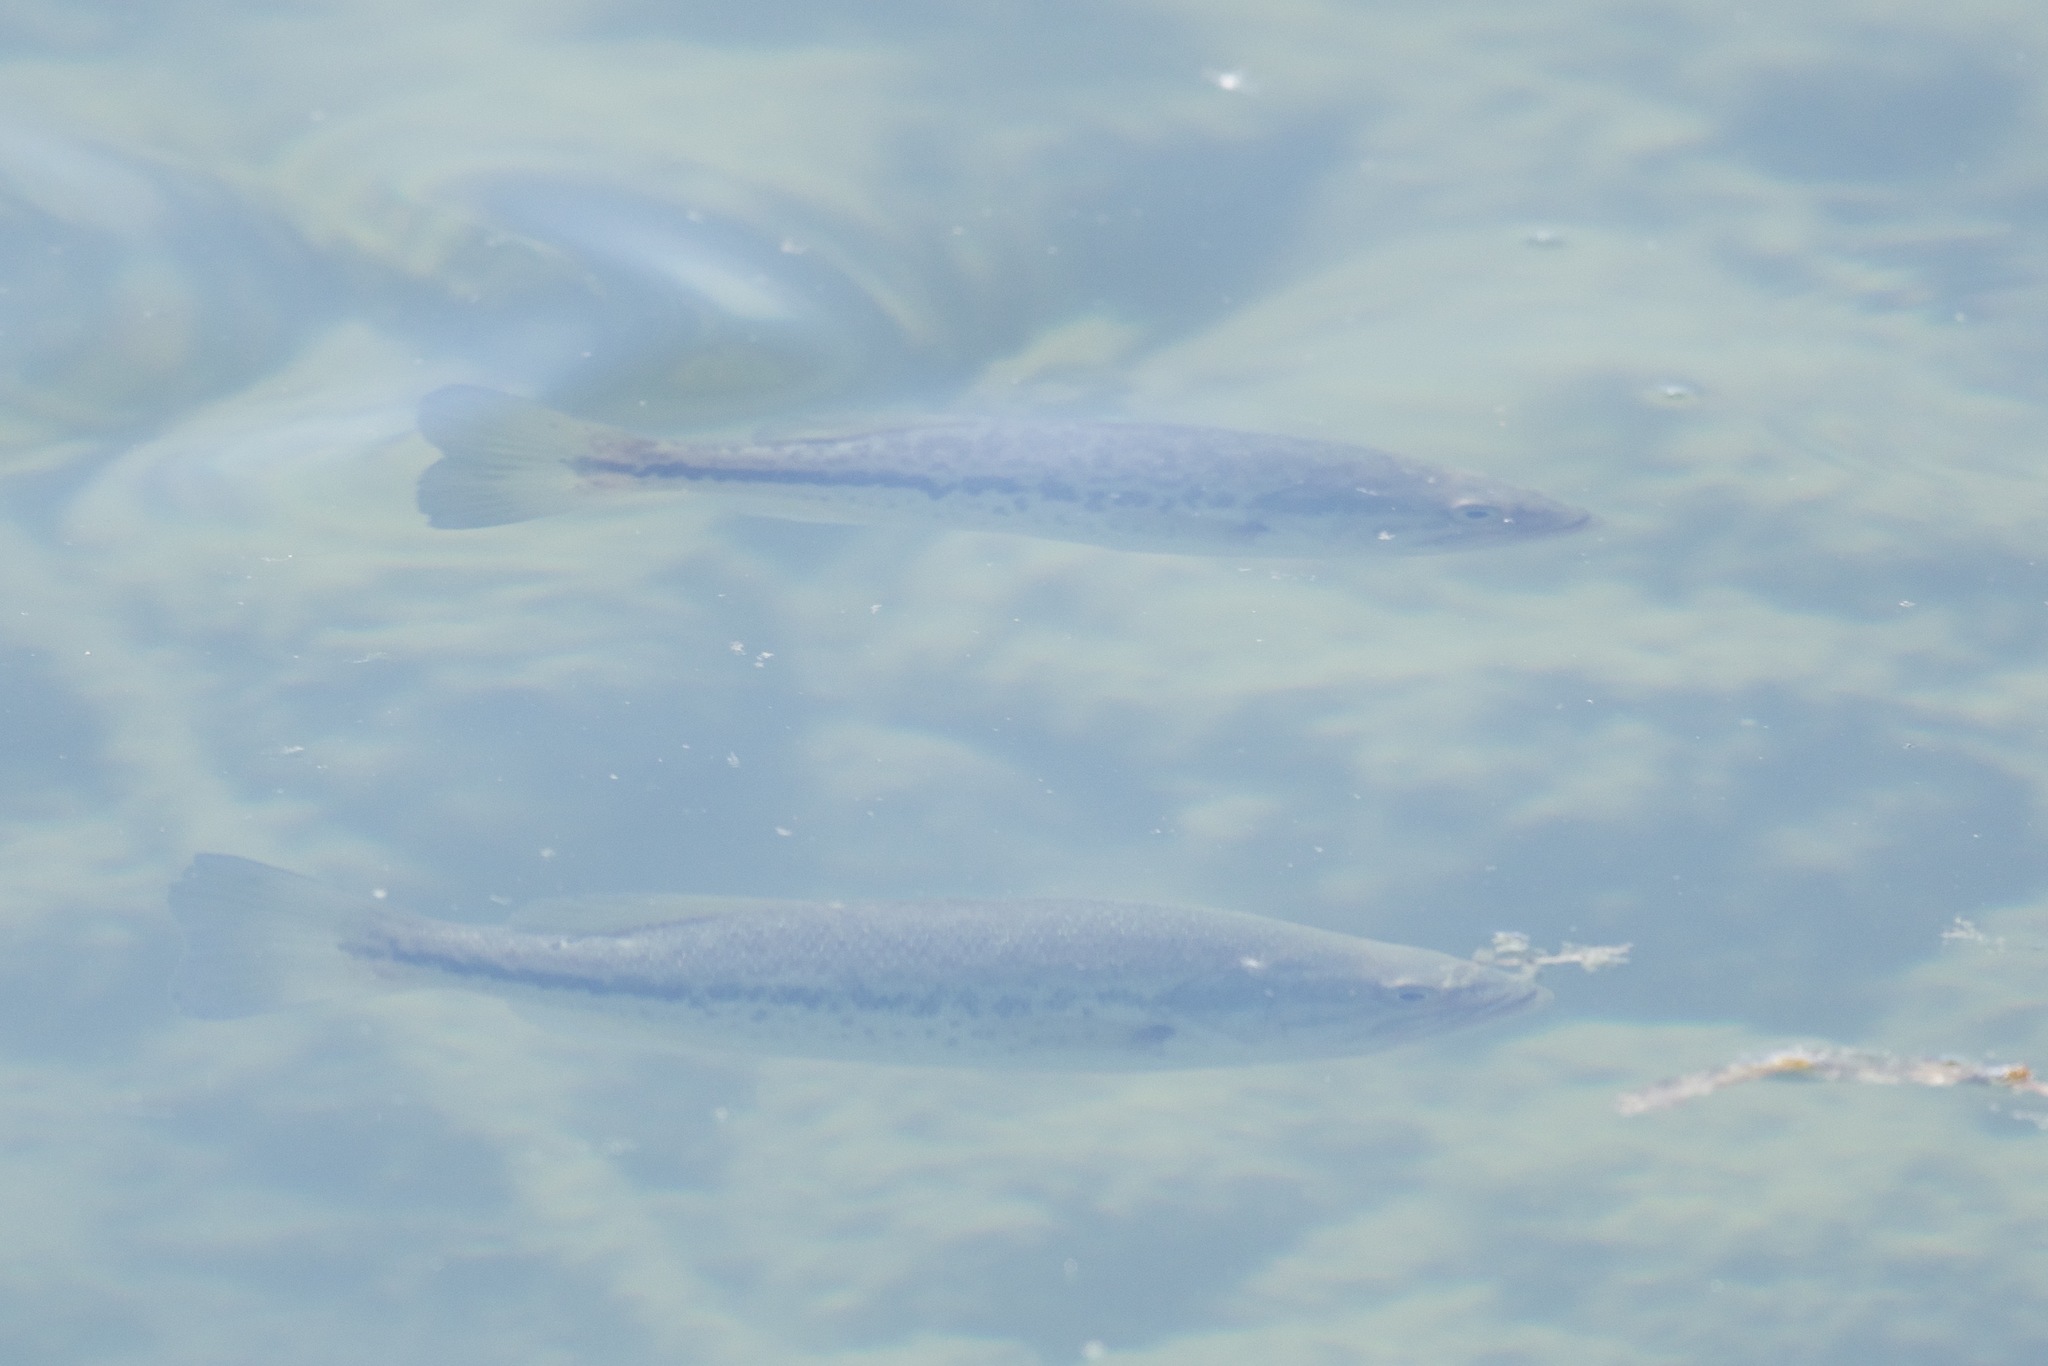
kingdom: Animalia
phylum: Chordata
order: Perciformes
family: Centrarchidae
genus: Micropterus
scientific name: Micropterus
